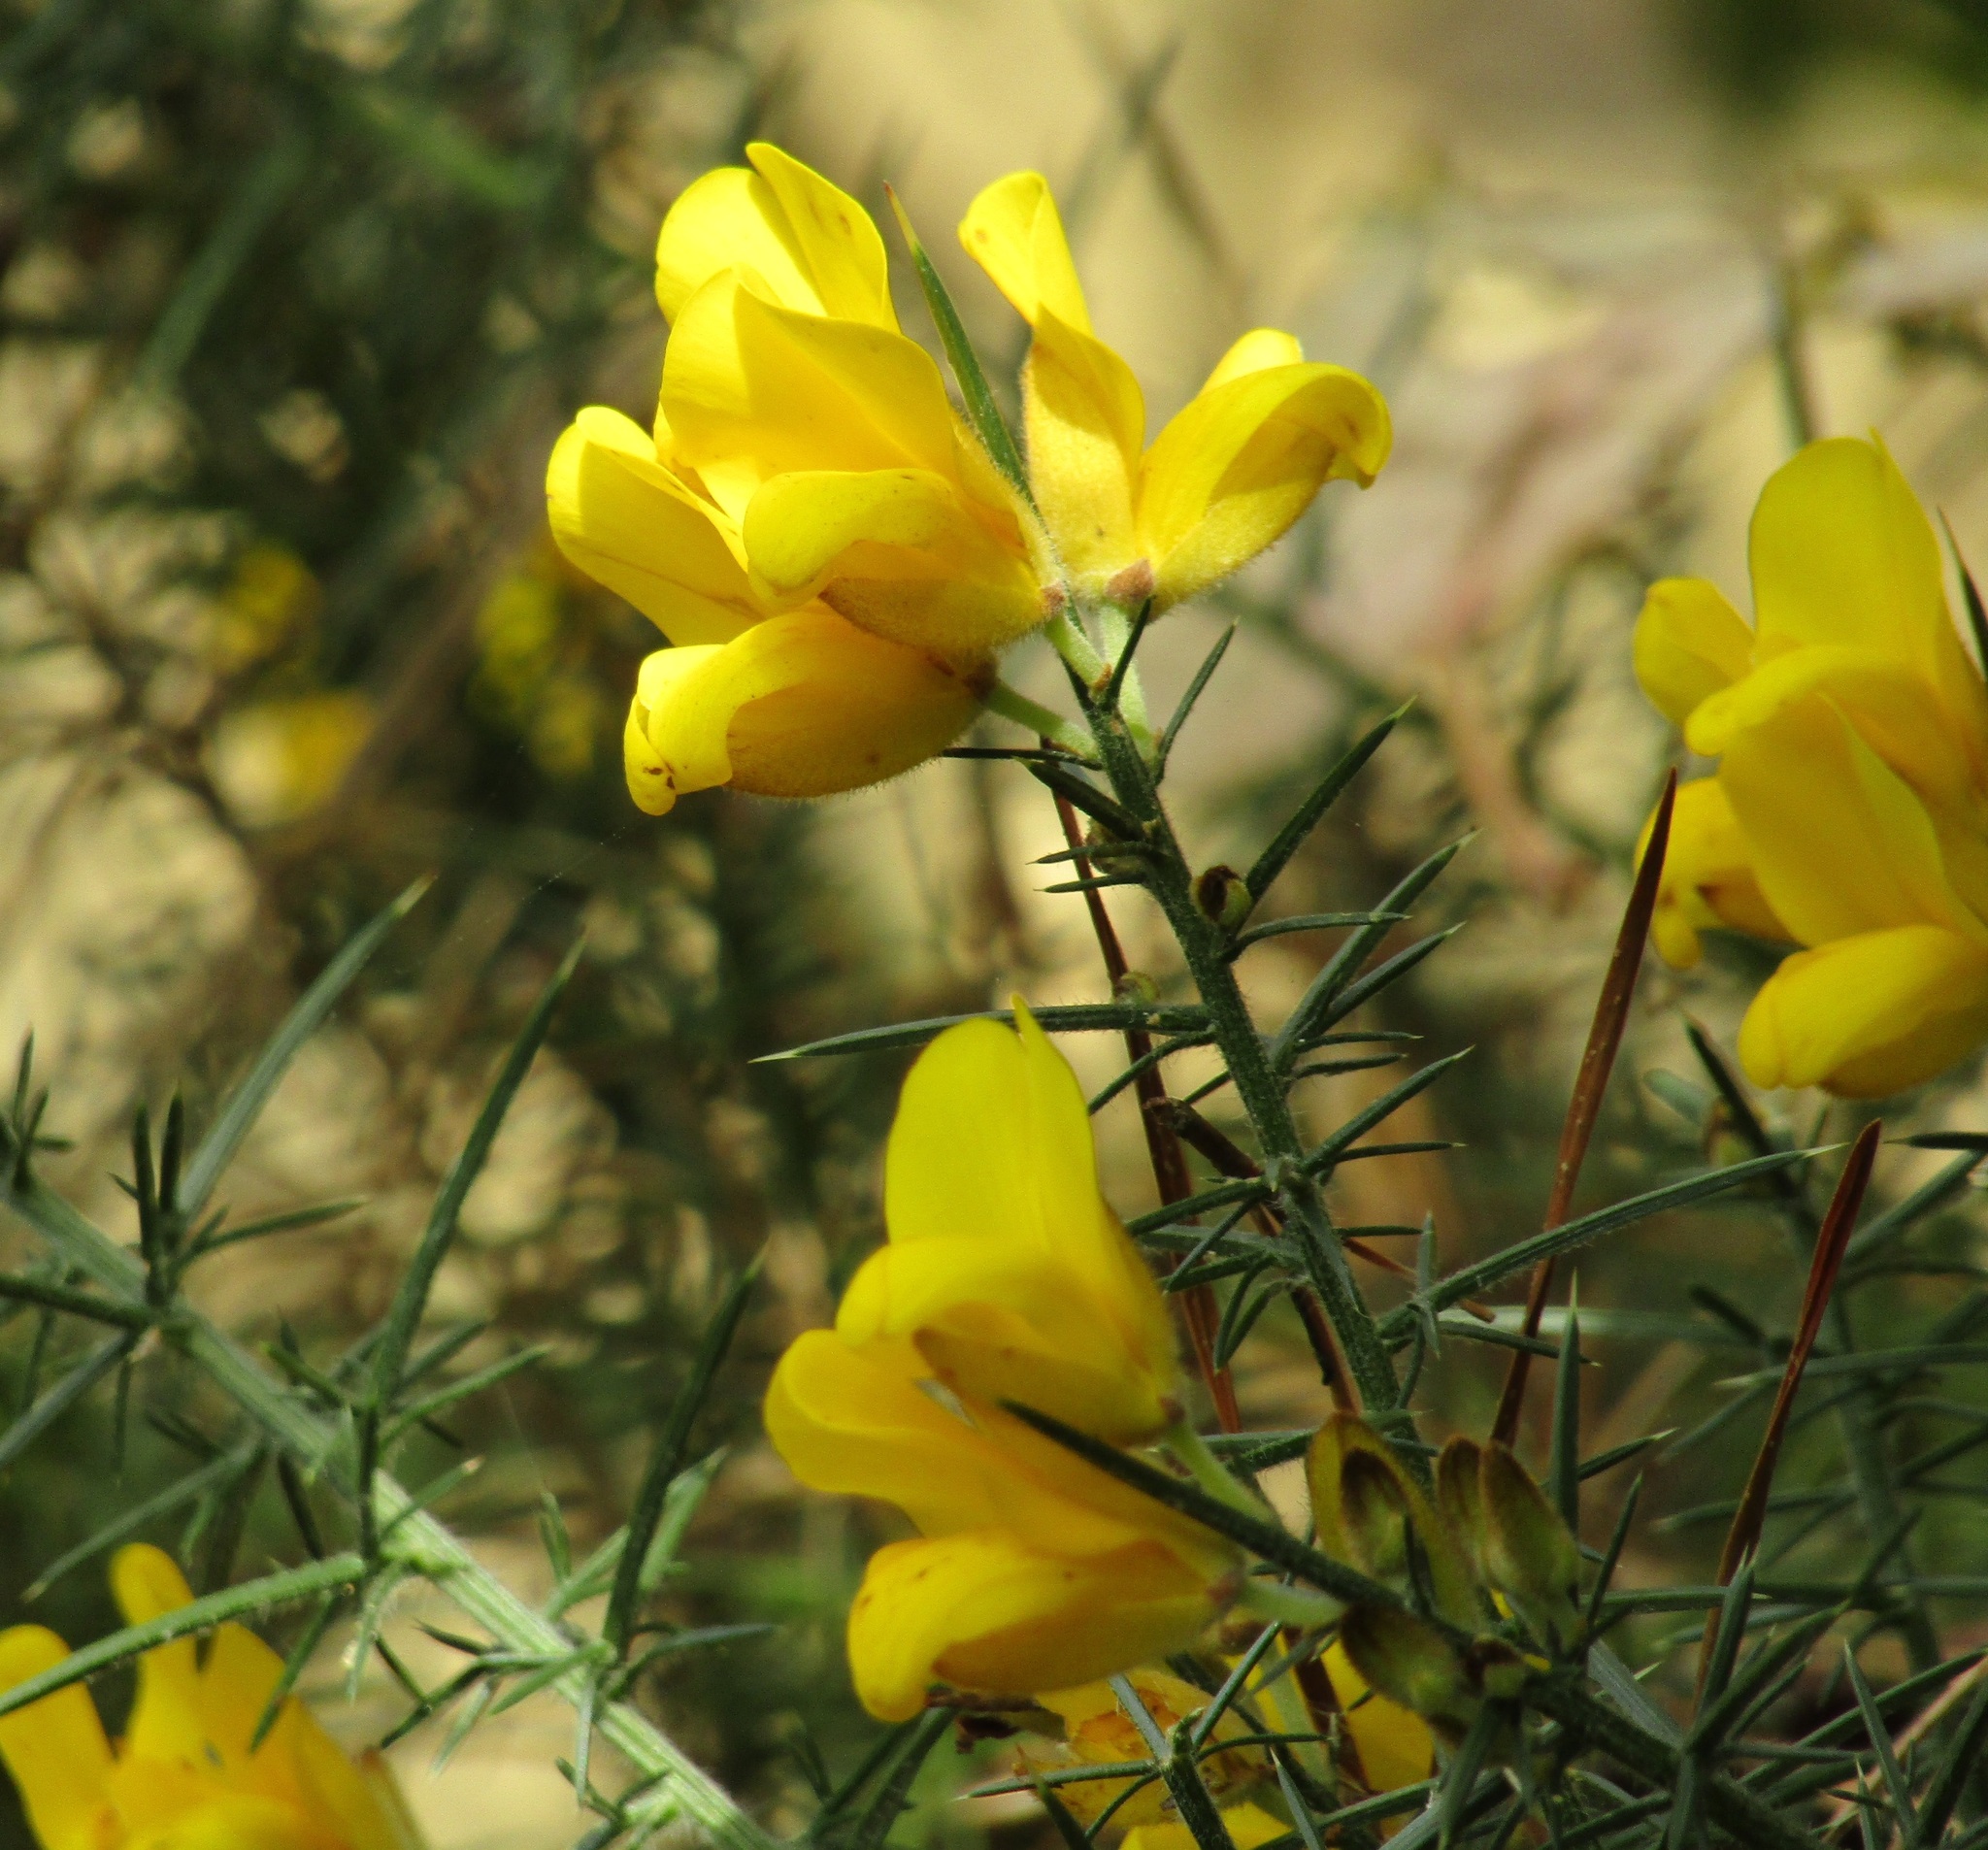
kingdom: Plantae
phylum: Tracheophyta
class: Magnoliopsida
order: Fabales
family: Fabaceae
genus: Ulex
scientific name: Ulex europaeus
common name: Common gorse
